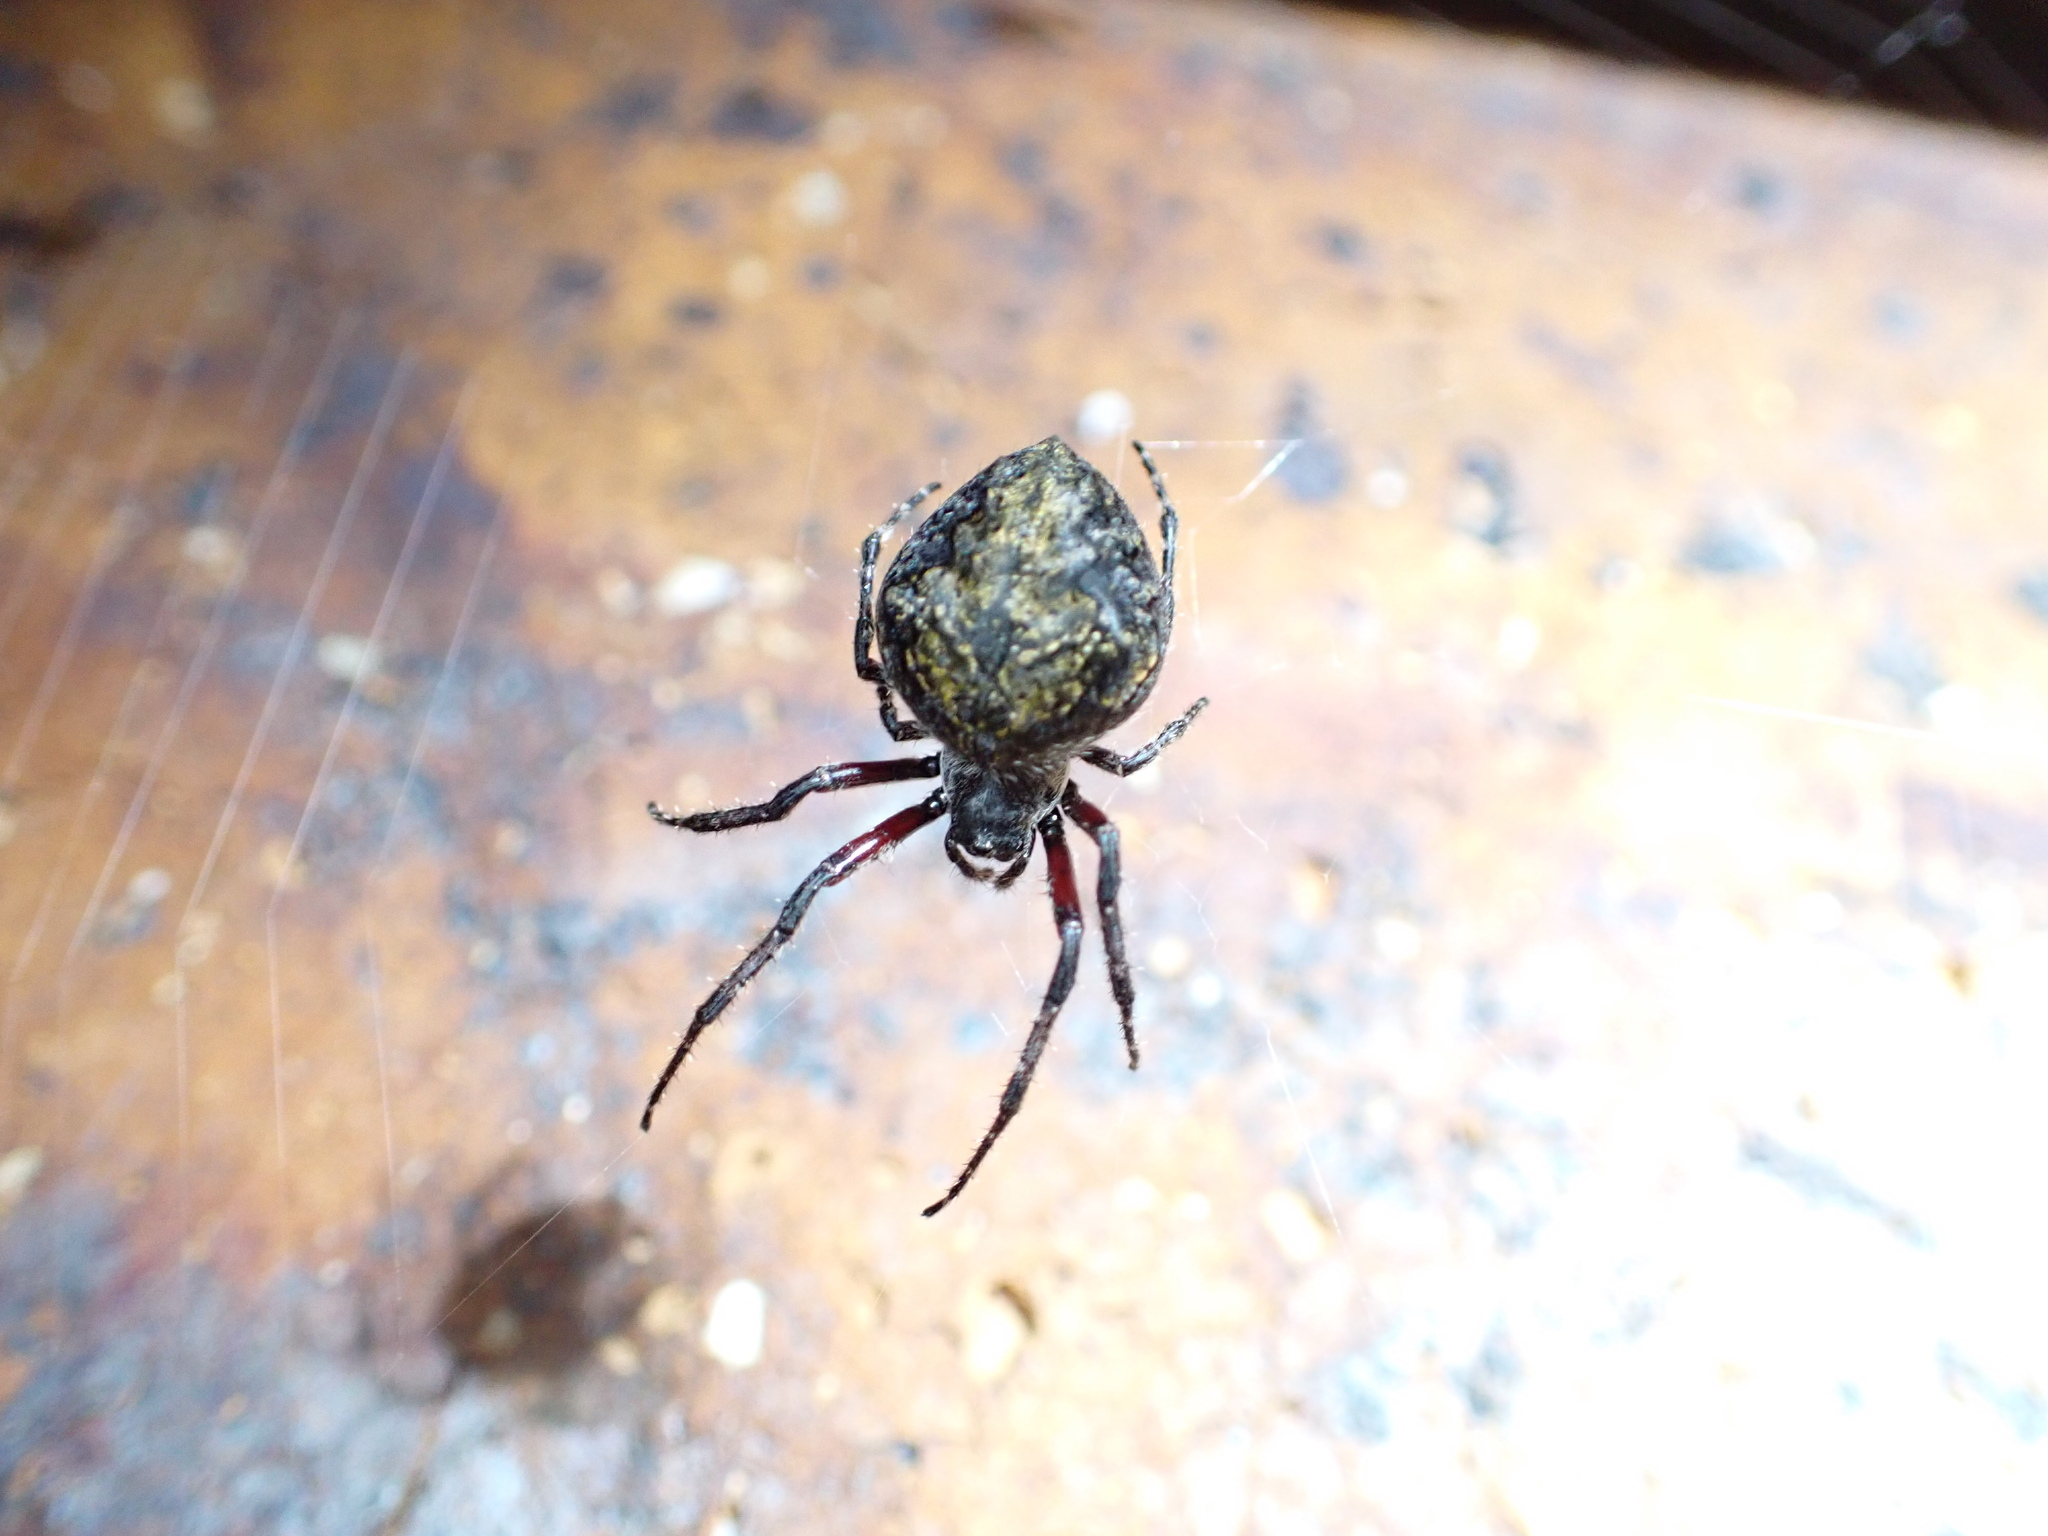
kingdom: Animalia
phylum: Arthropoda
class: Arachnida
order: Araneae
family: Araneidae
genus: Eriophora
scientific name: Eriophora pustulosa
